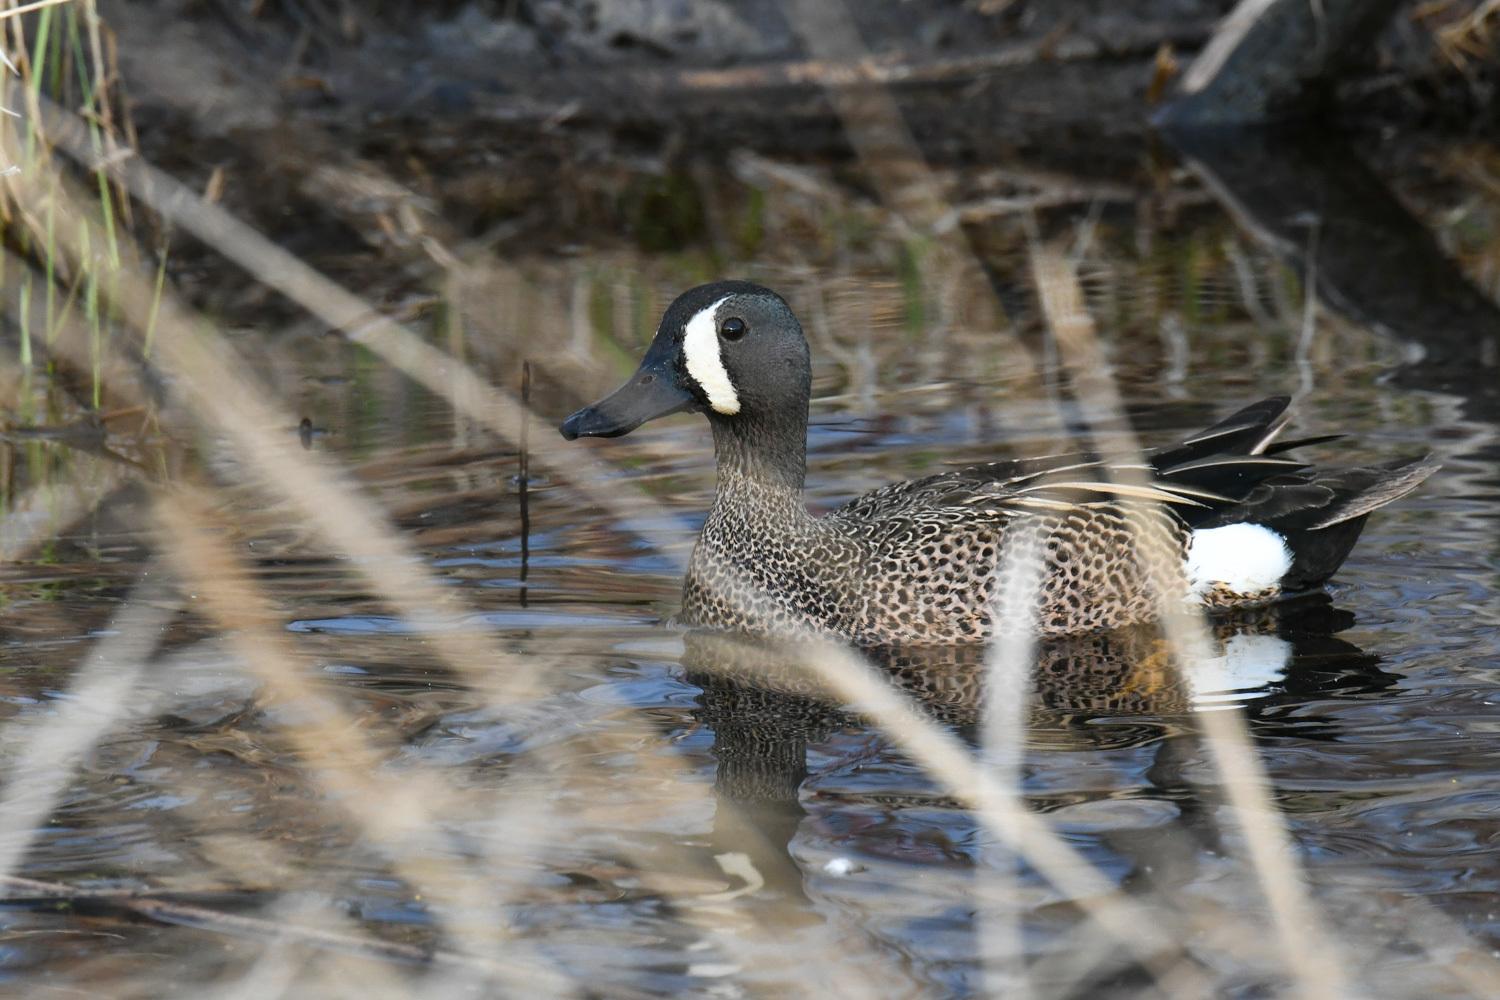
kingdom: Animalia
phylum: Chordata
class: Aves
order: Anseriformes
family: Anatidae
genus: Spatula
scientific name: Spatula discors
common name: Blue-winged teal
